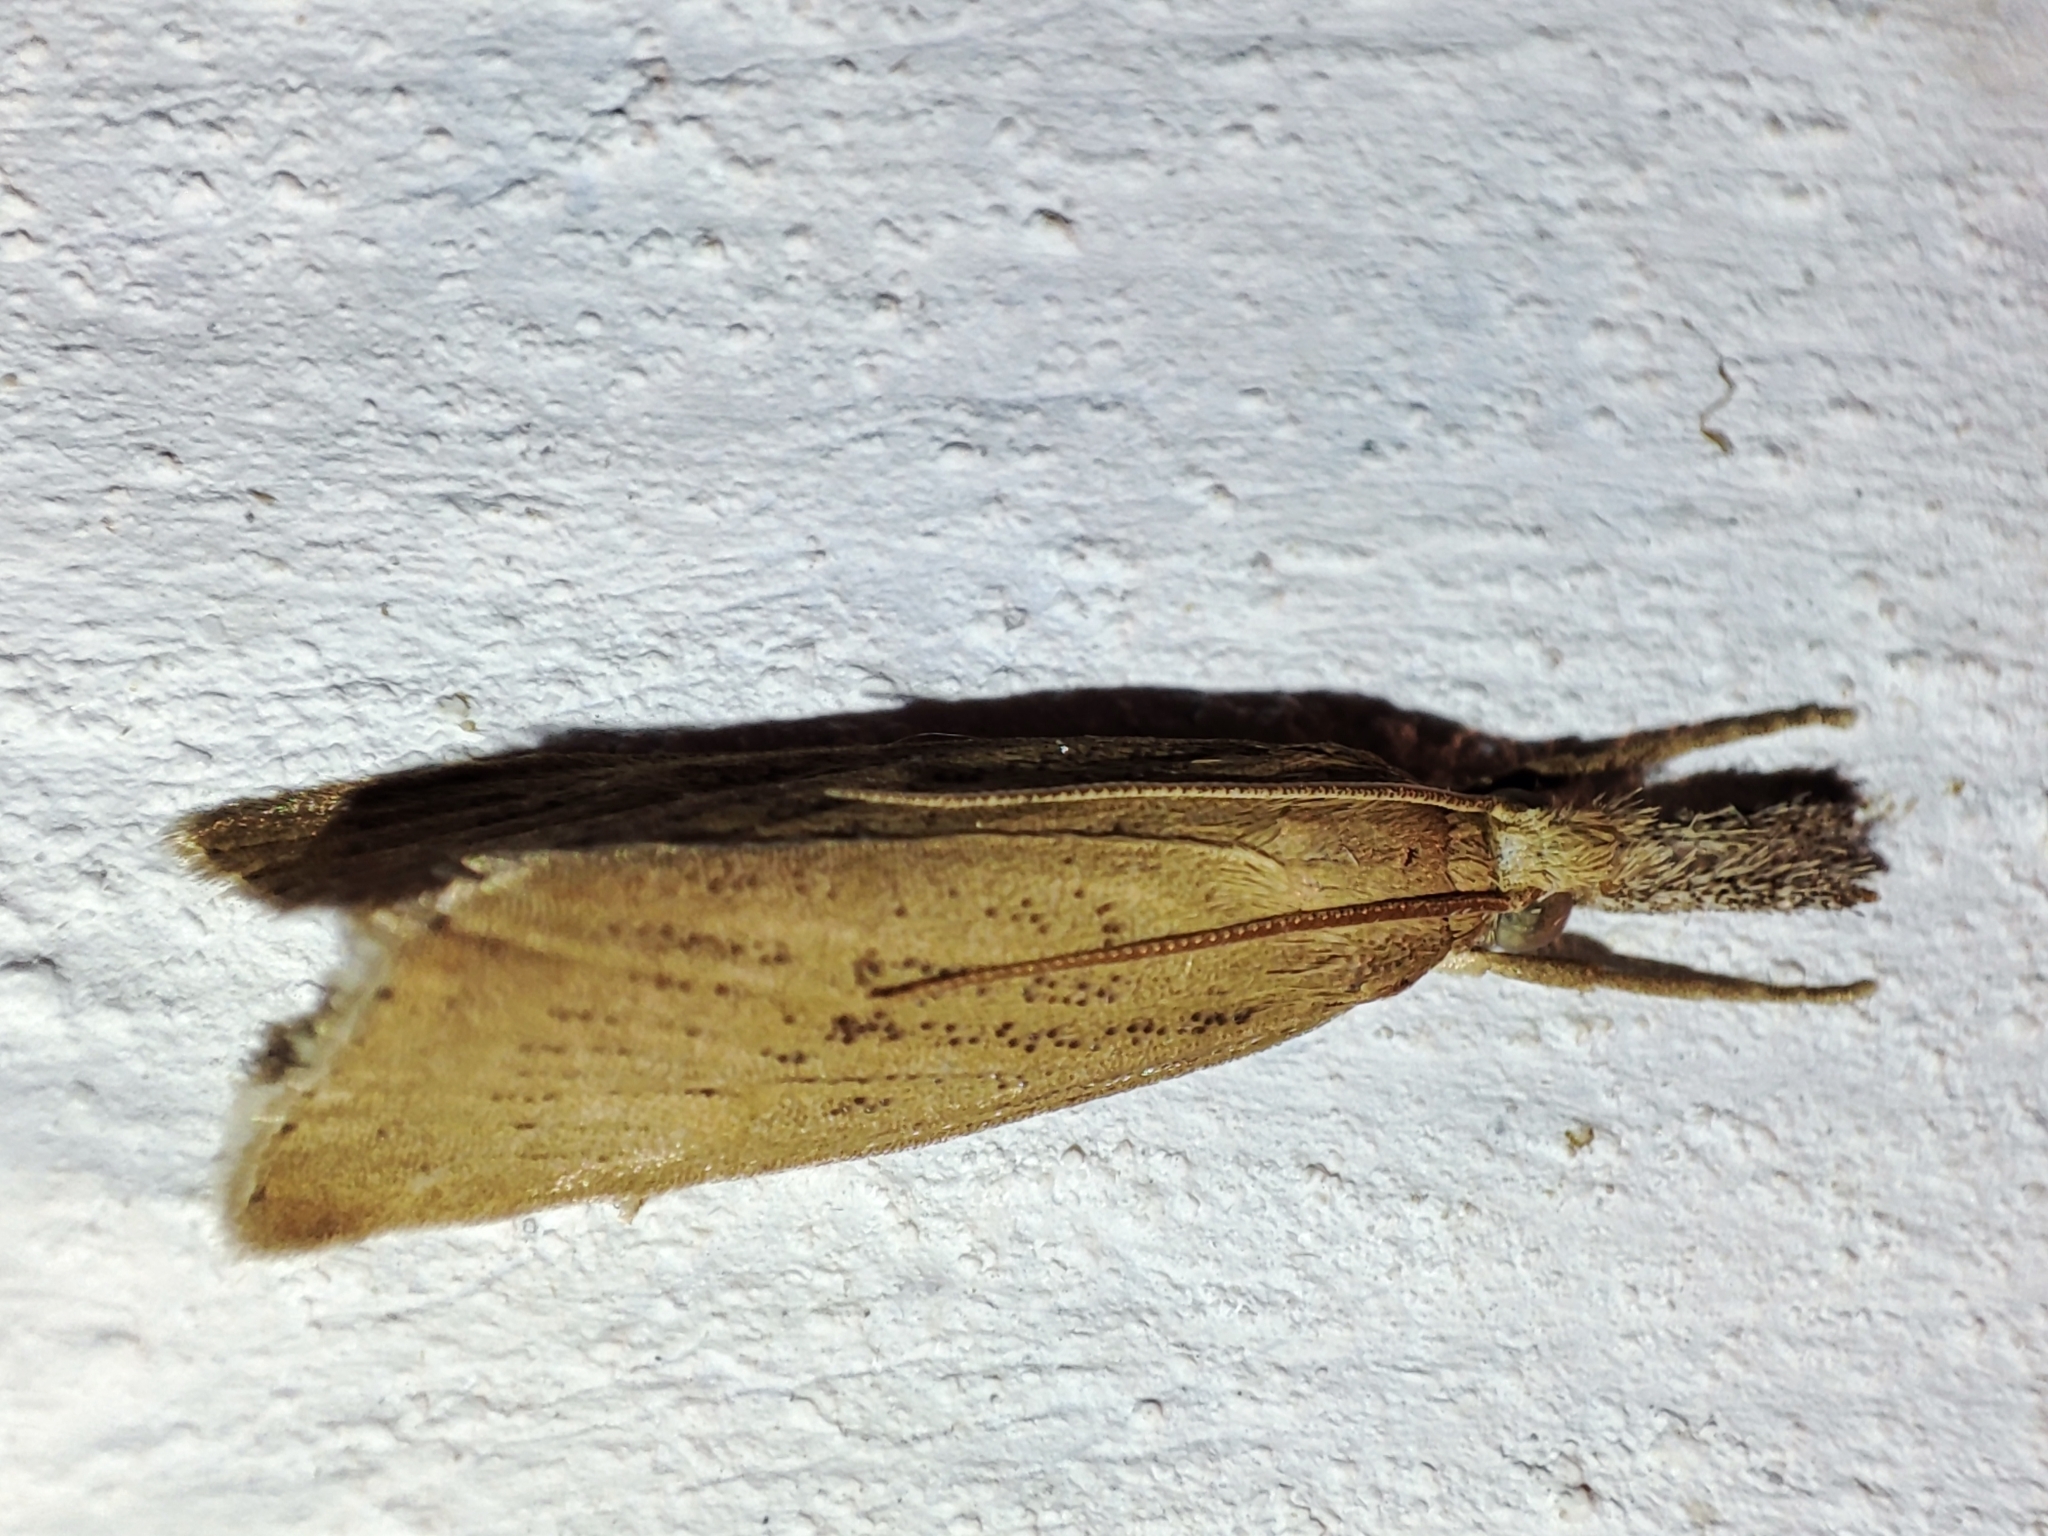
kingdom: Animalia
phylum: Arthropoda
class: Insecta
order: Lepidoptera
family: Crambidae
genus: Chilo
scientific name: Chilo luteellus
